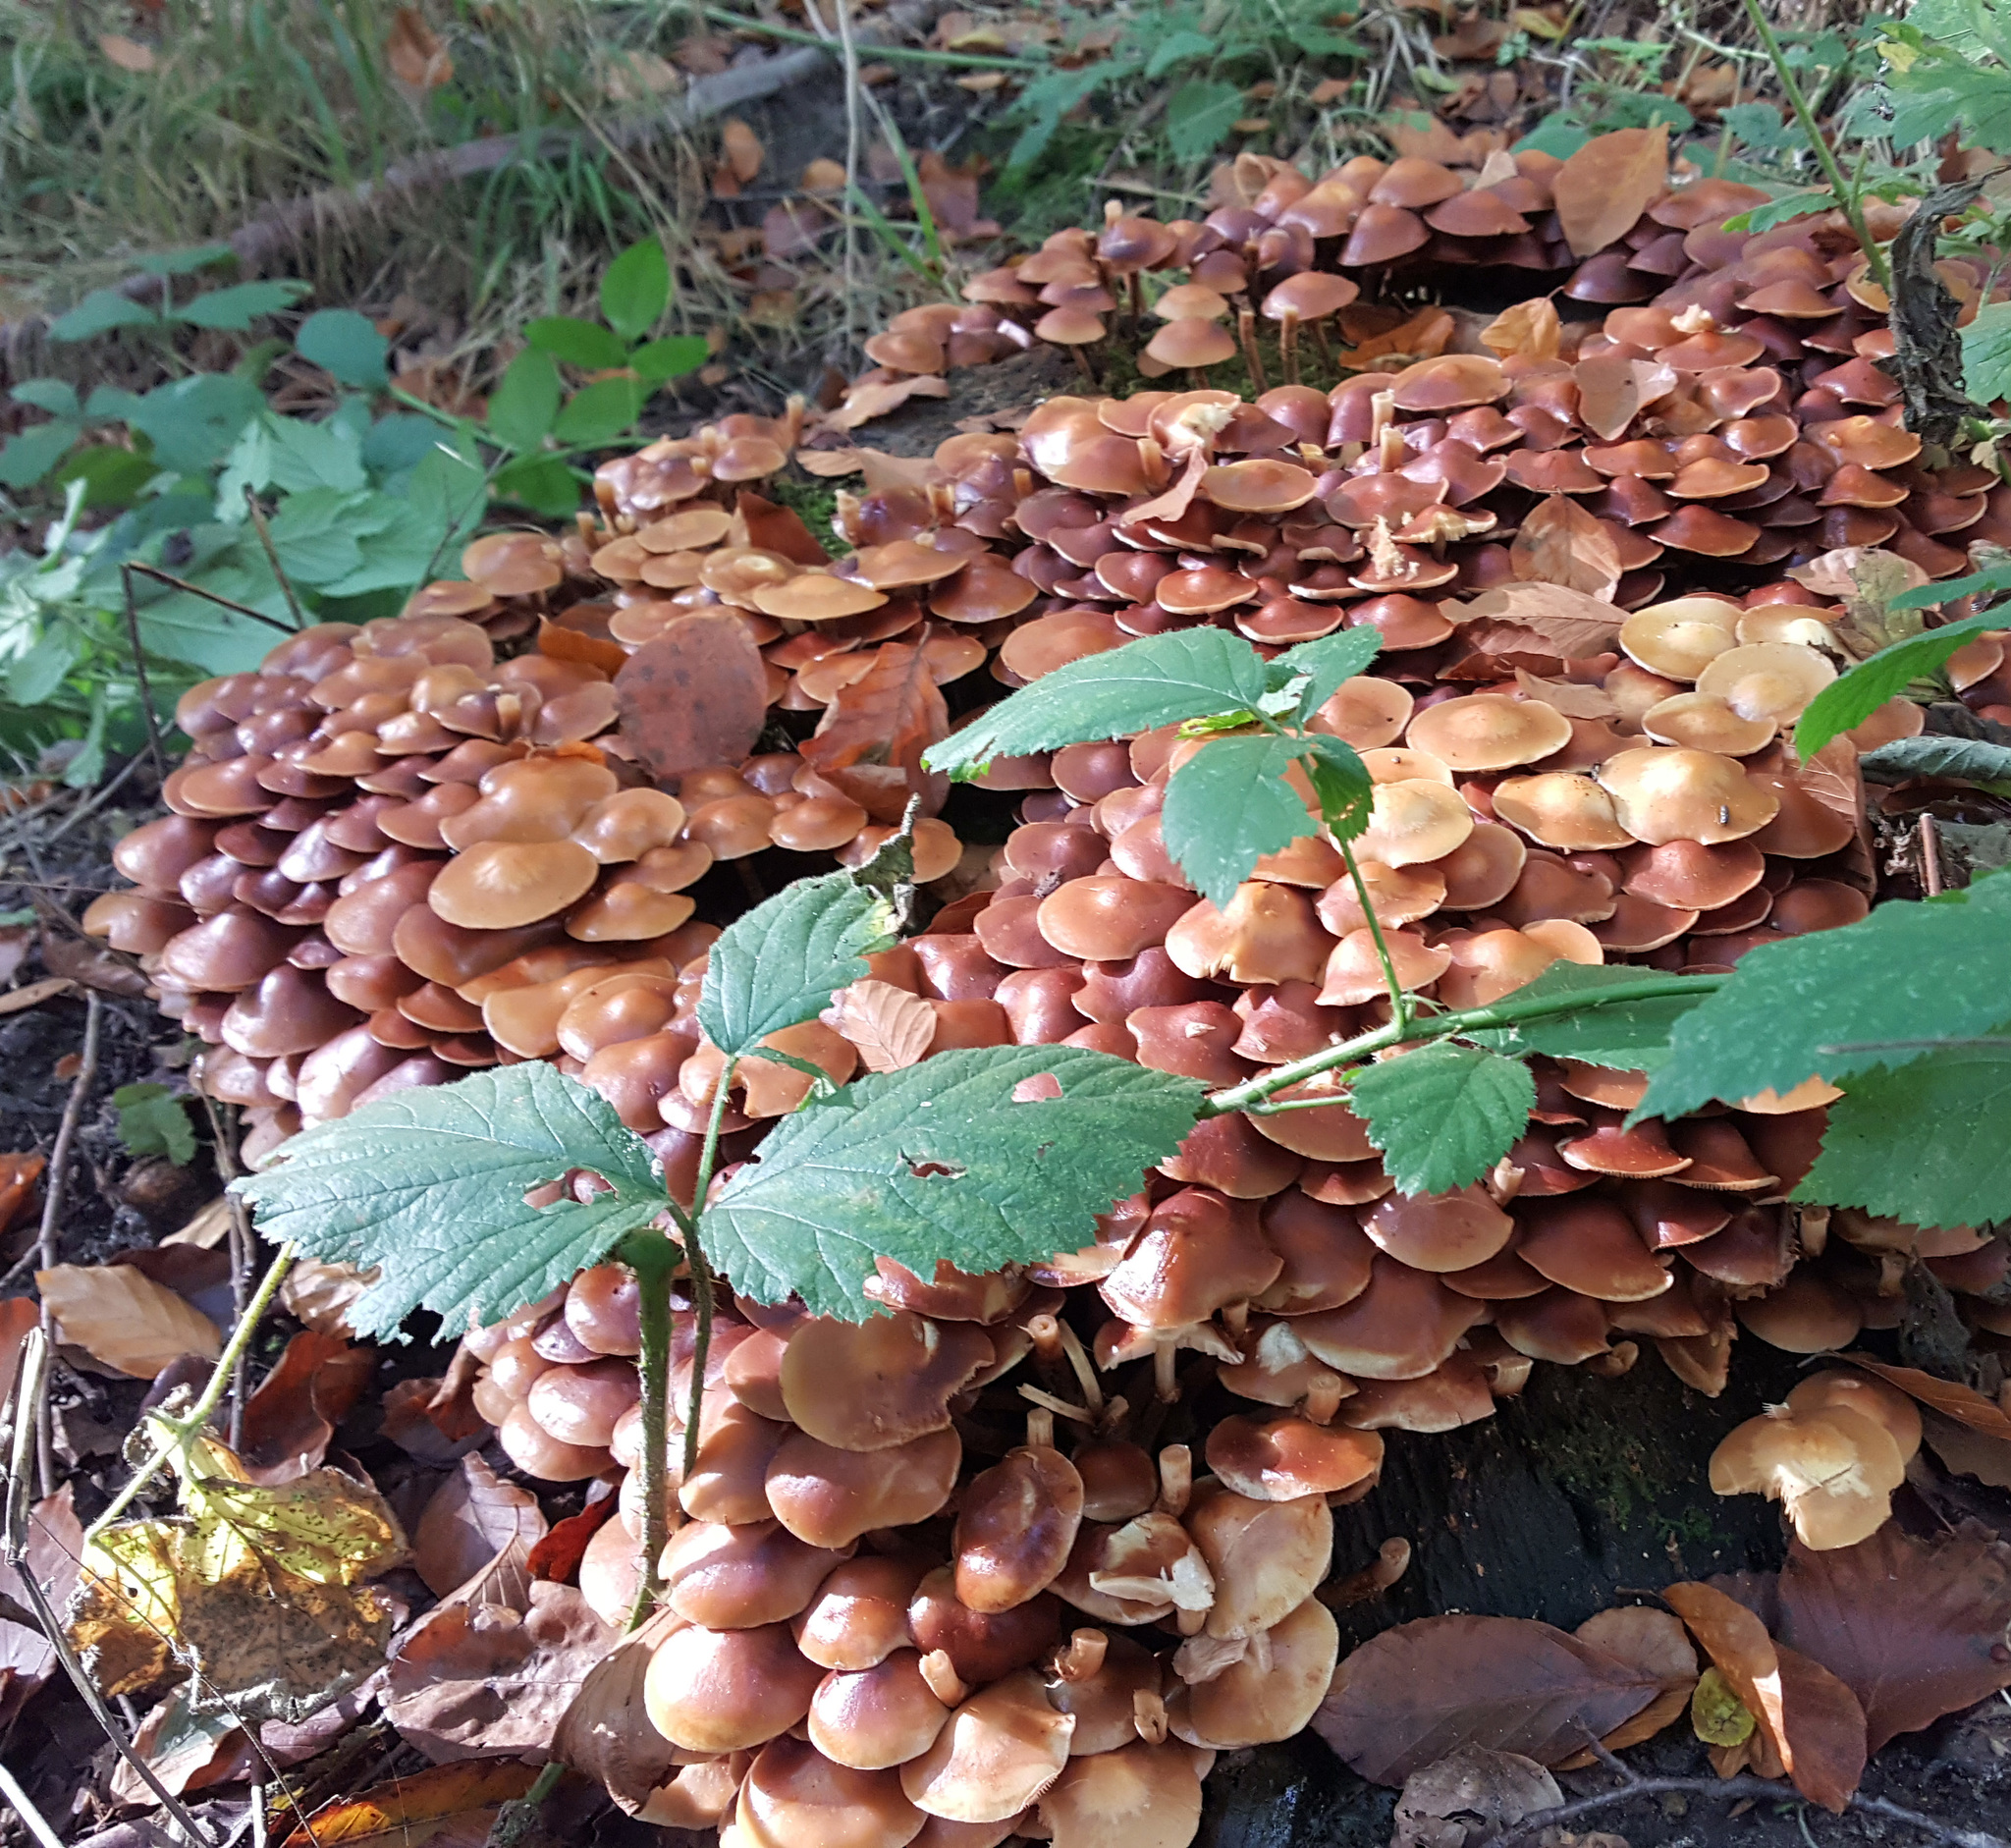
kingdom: Fungi
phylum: Basidiomycota
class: Agaricomycetes
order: Agaricales
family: Strophariaceae
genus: Kuehneromyces
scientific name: Kuehneromyces mutabilis
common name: Sheathed woodtuft
